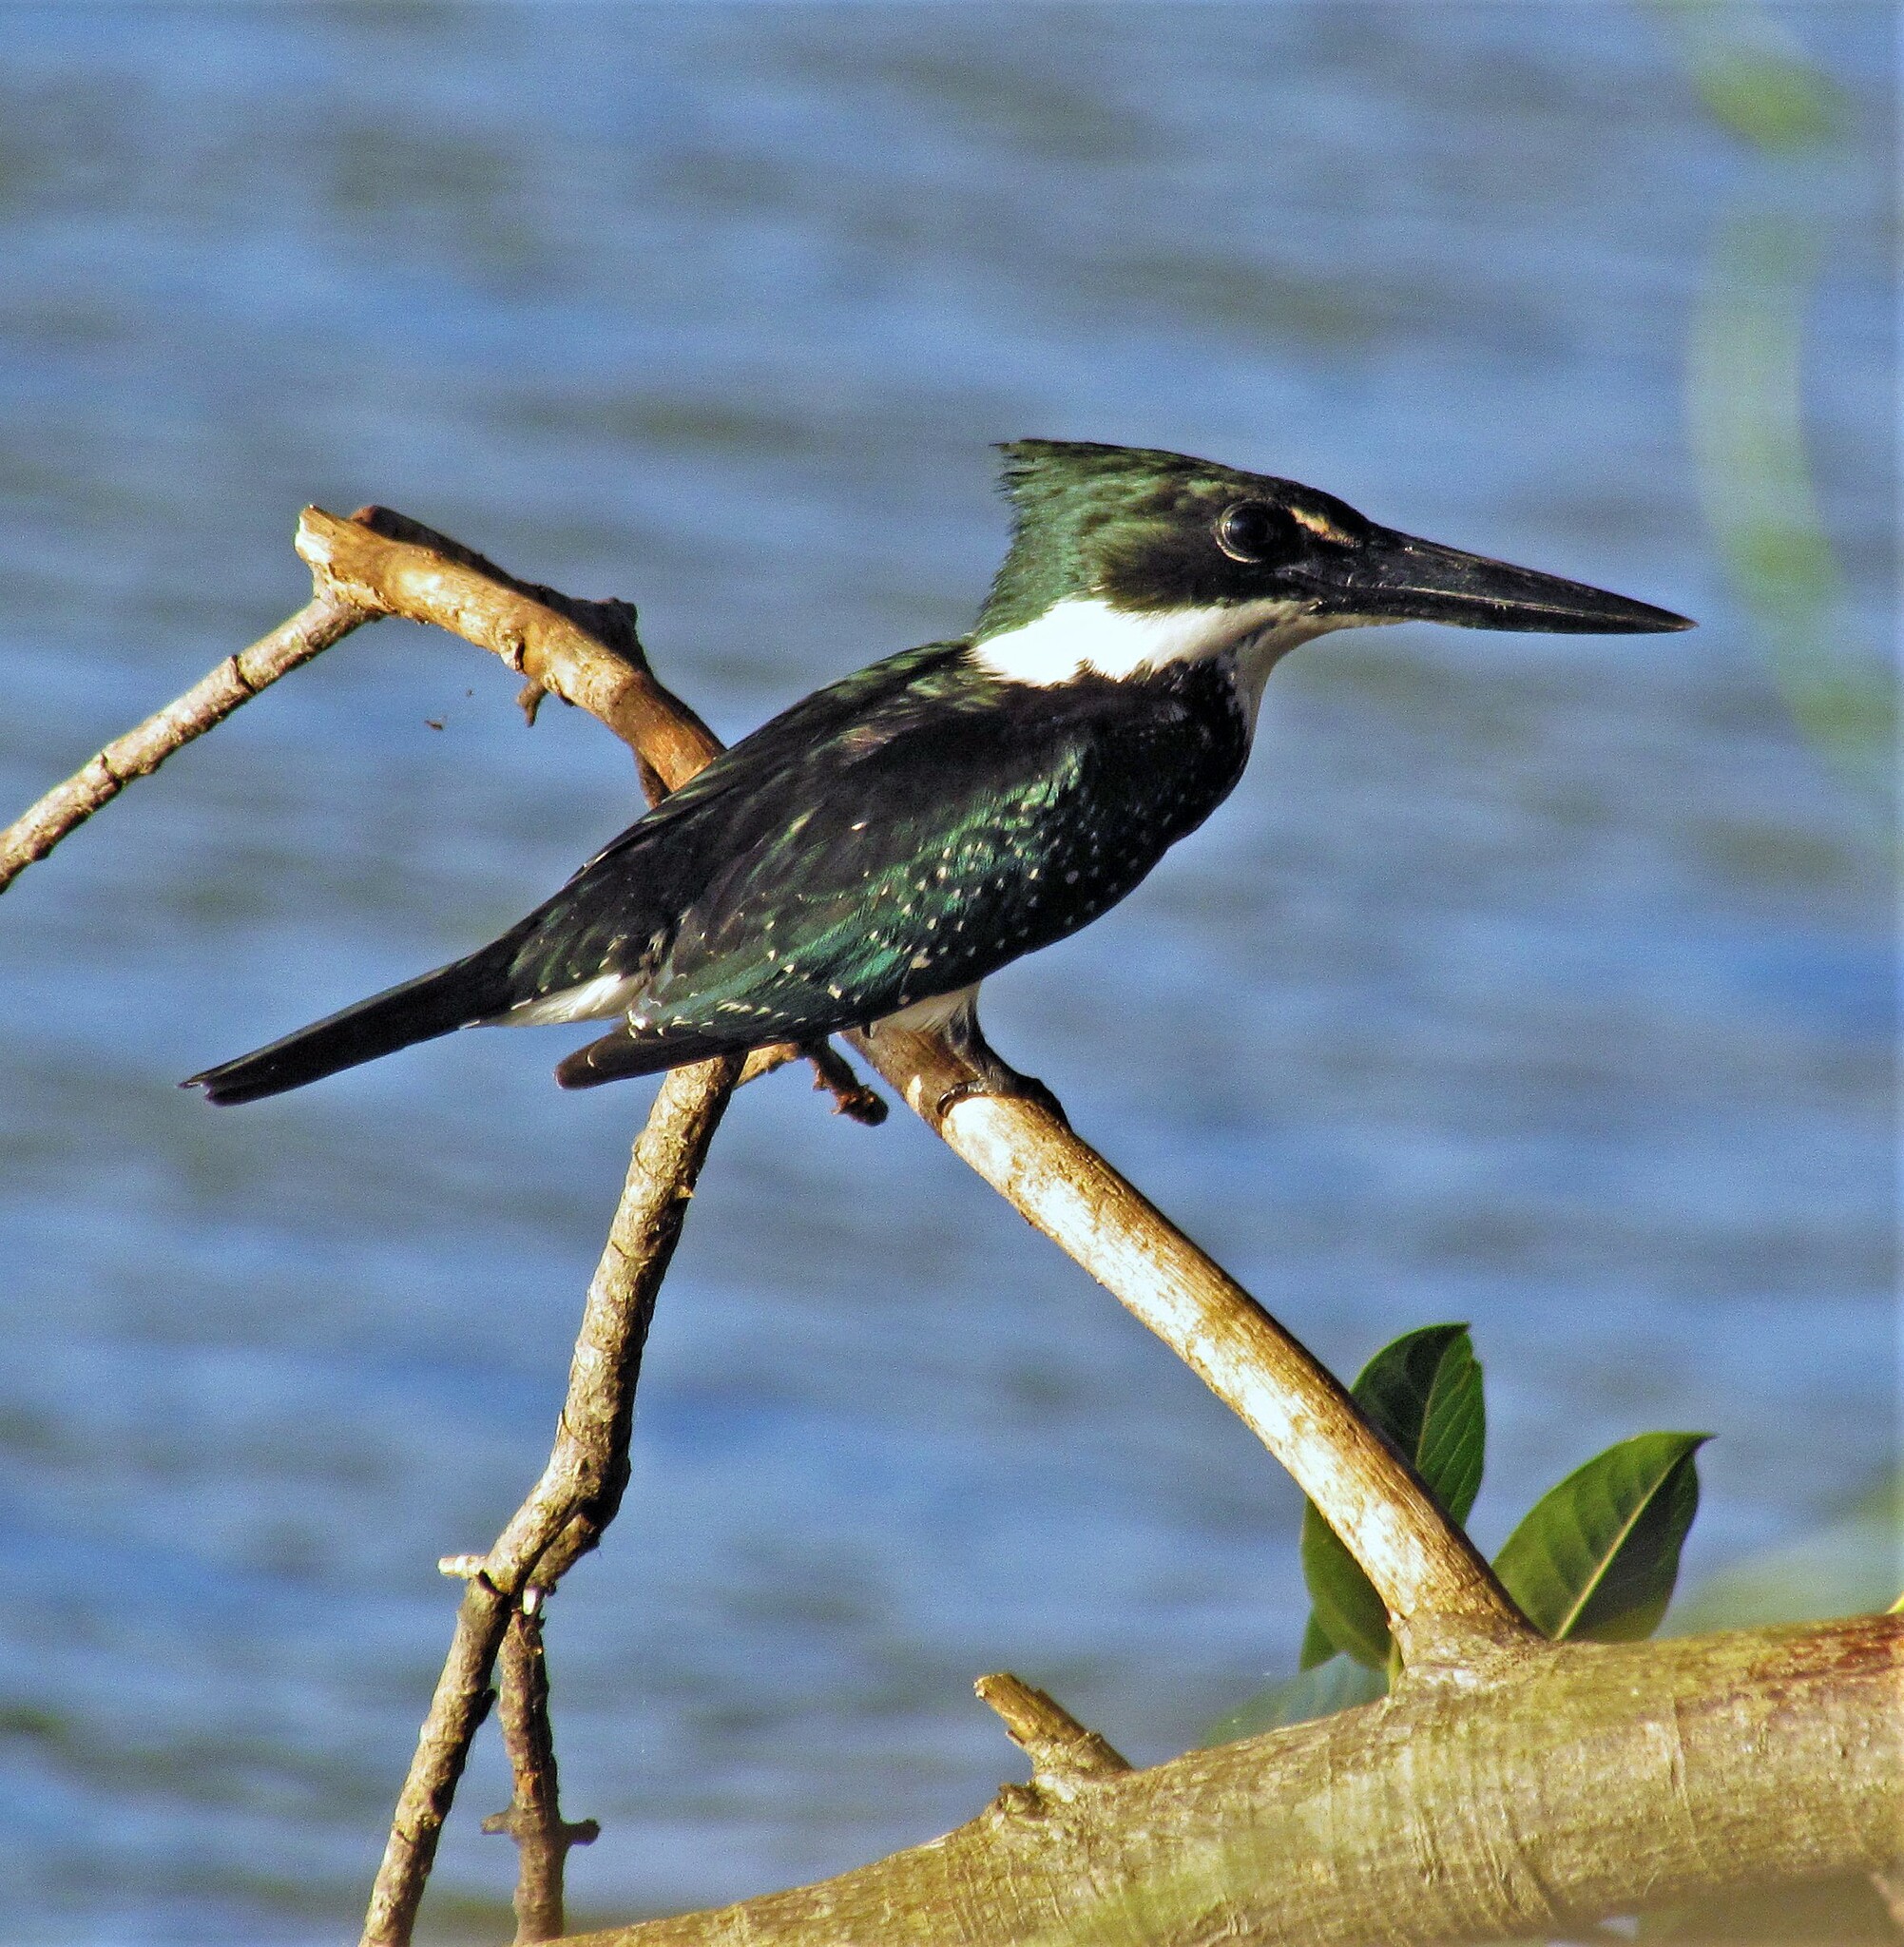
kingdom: Animalia
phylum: Chordata
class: Aves
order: Coraciiformes
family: Alcedinidae
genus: Chloroceryle
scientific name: Chloroceryle amazona
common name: Amazon kingfisher
